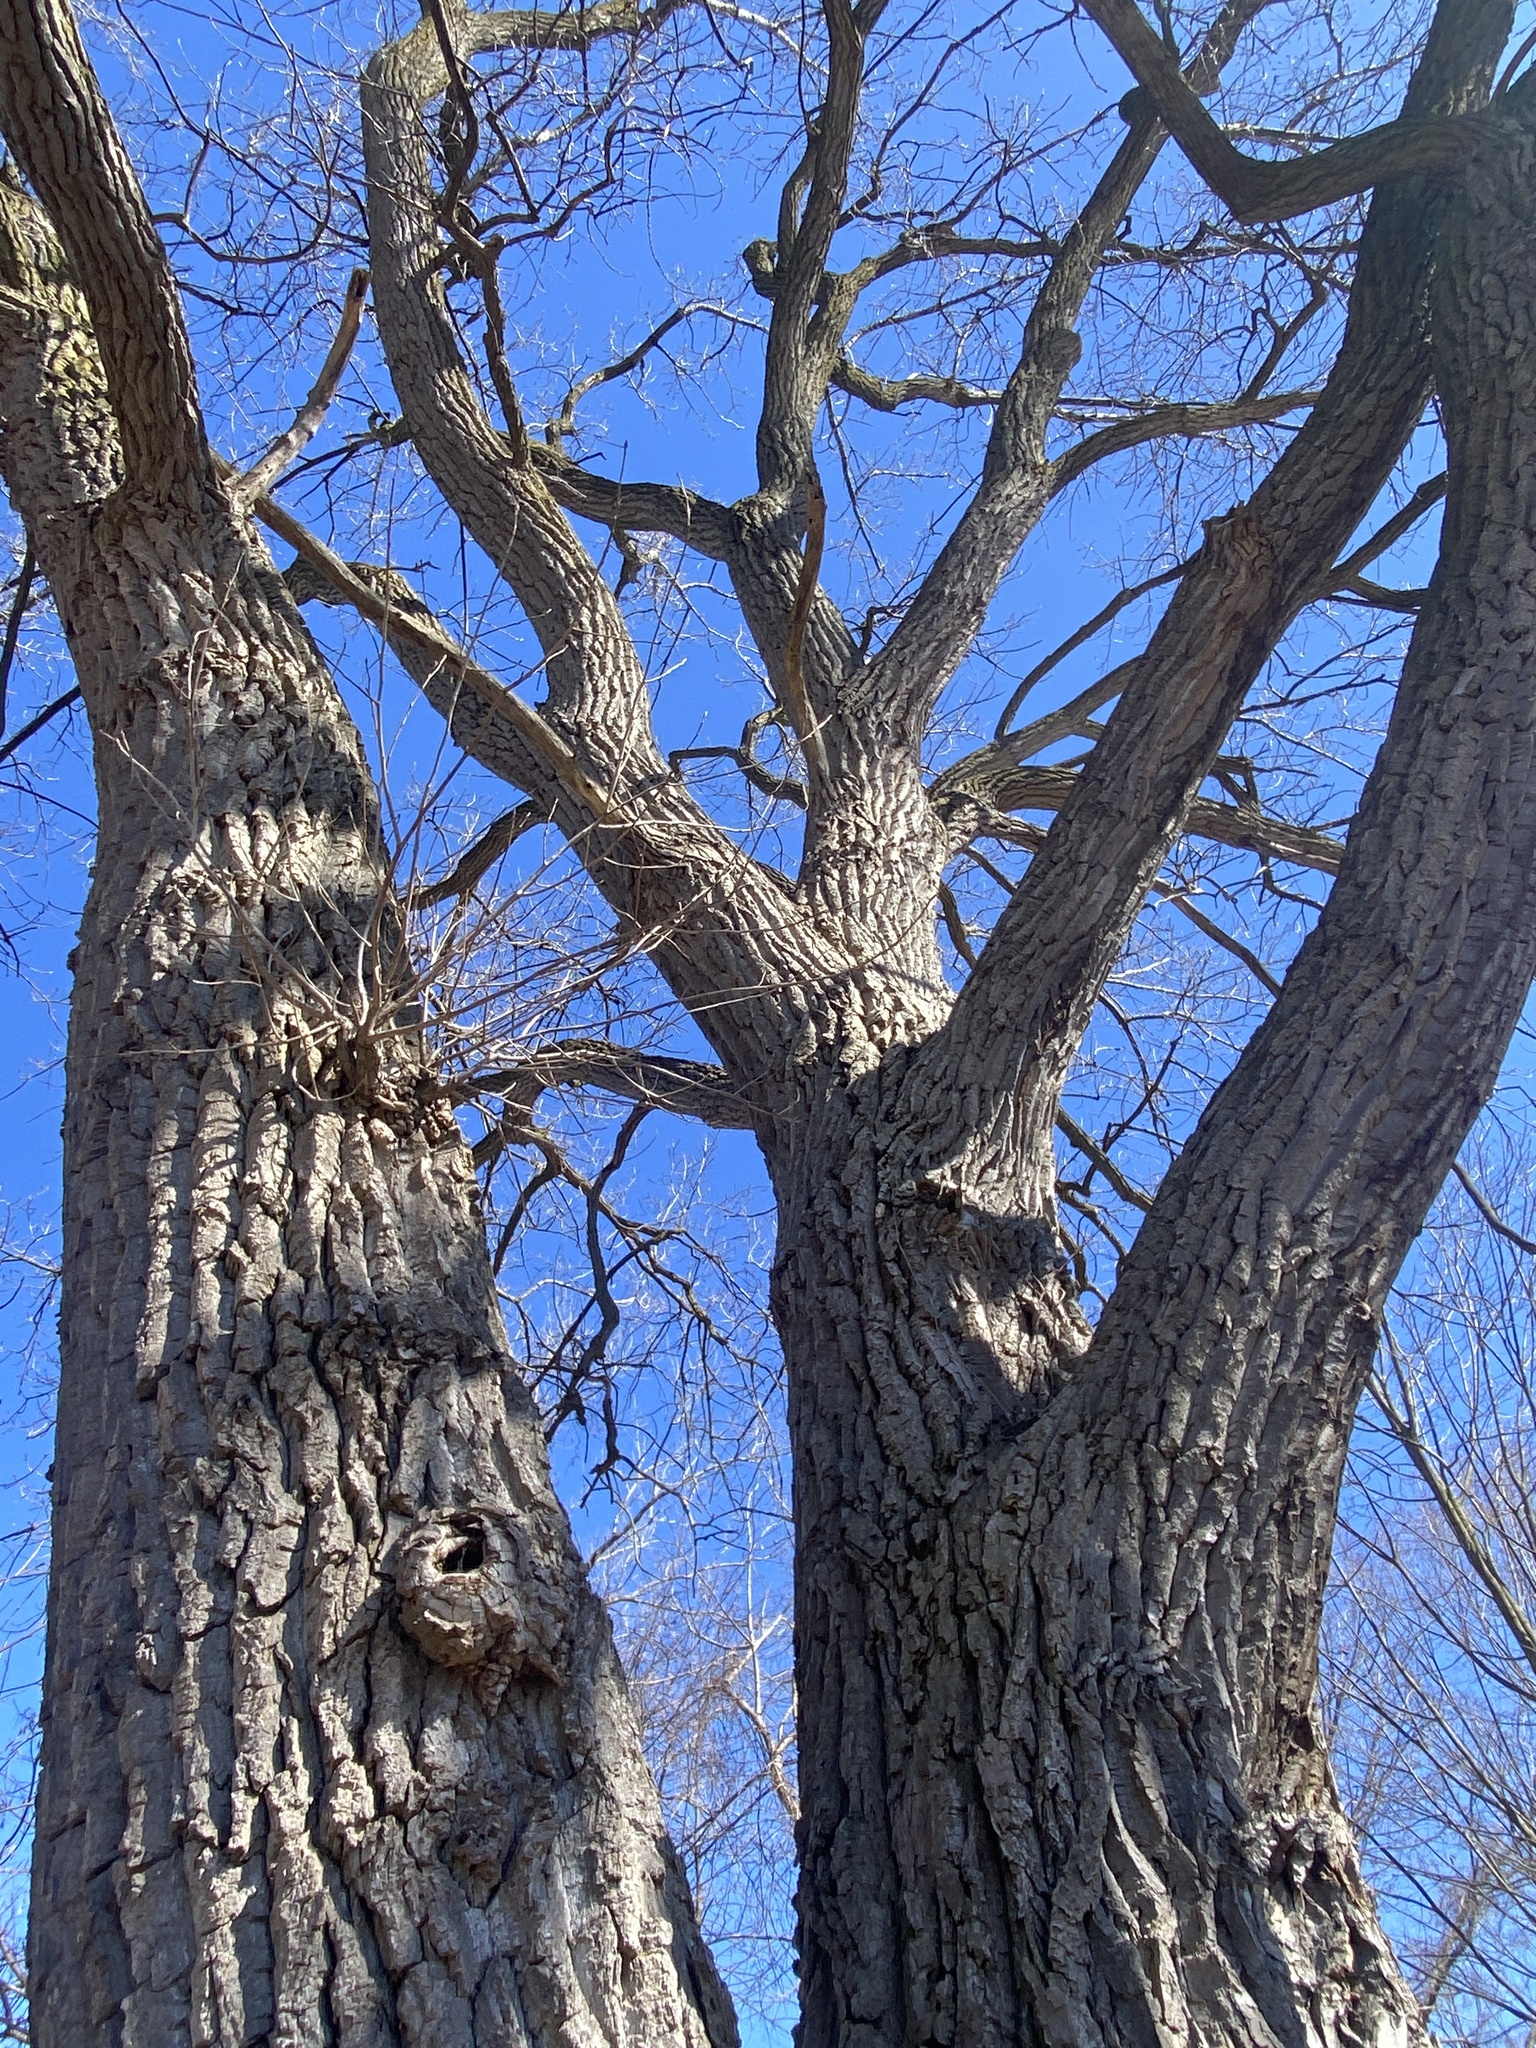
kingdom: Plantae
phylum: Tracheophyta
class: Magnoliopsida
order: Malpighiales
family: Salicaceae
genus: Populus
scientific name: Populus deltoides
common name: Eastern cottonwood
